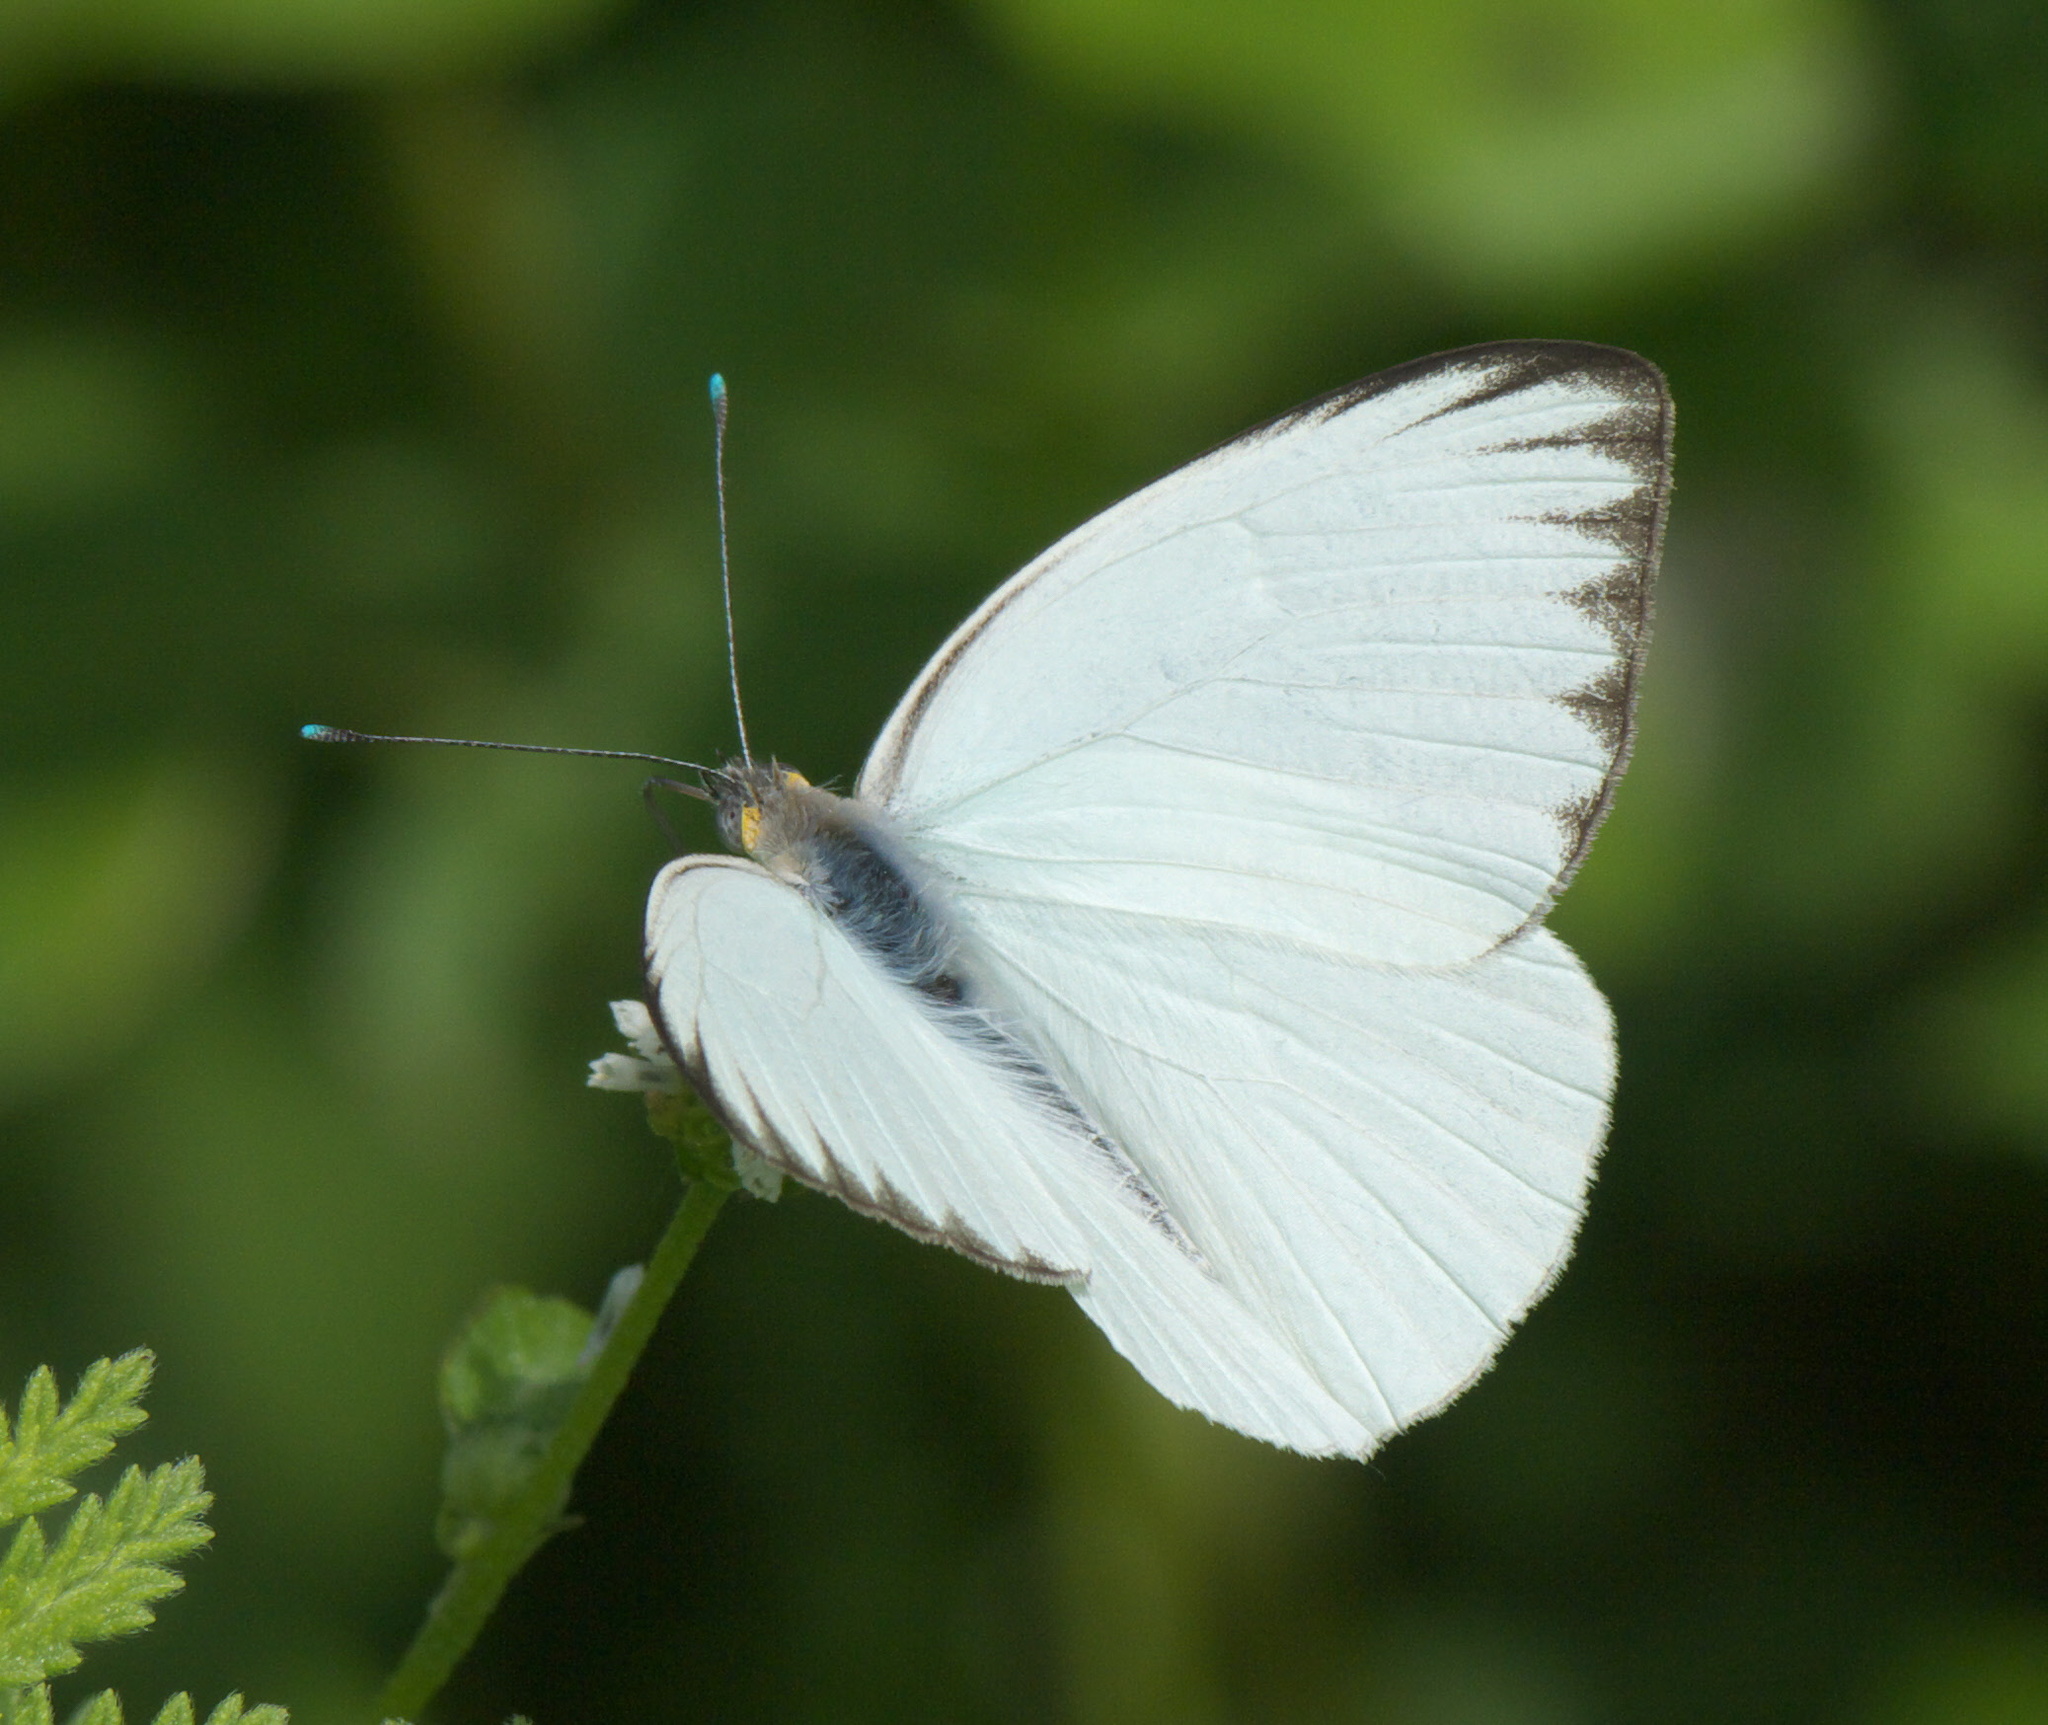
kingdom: Animalia
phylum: Arthropoda
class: Insecta
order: Lepidoptera
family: Pieridae
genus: Ascia
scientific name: Ascia monuste
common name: Great southern white
